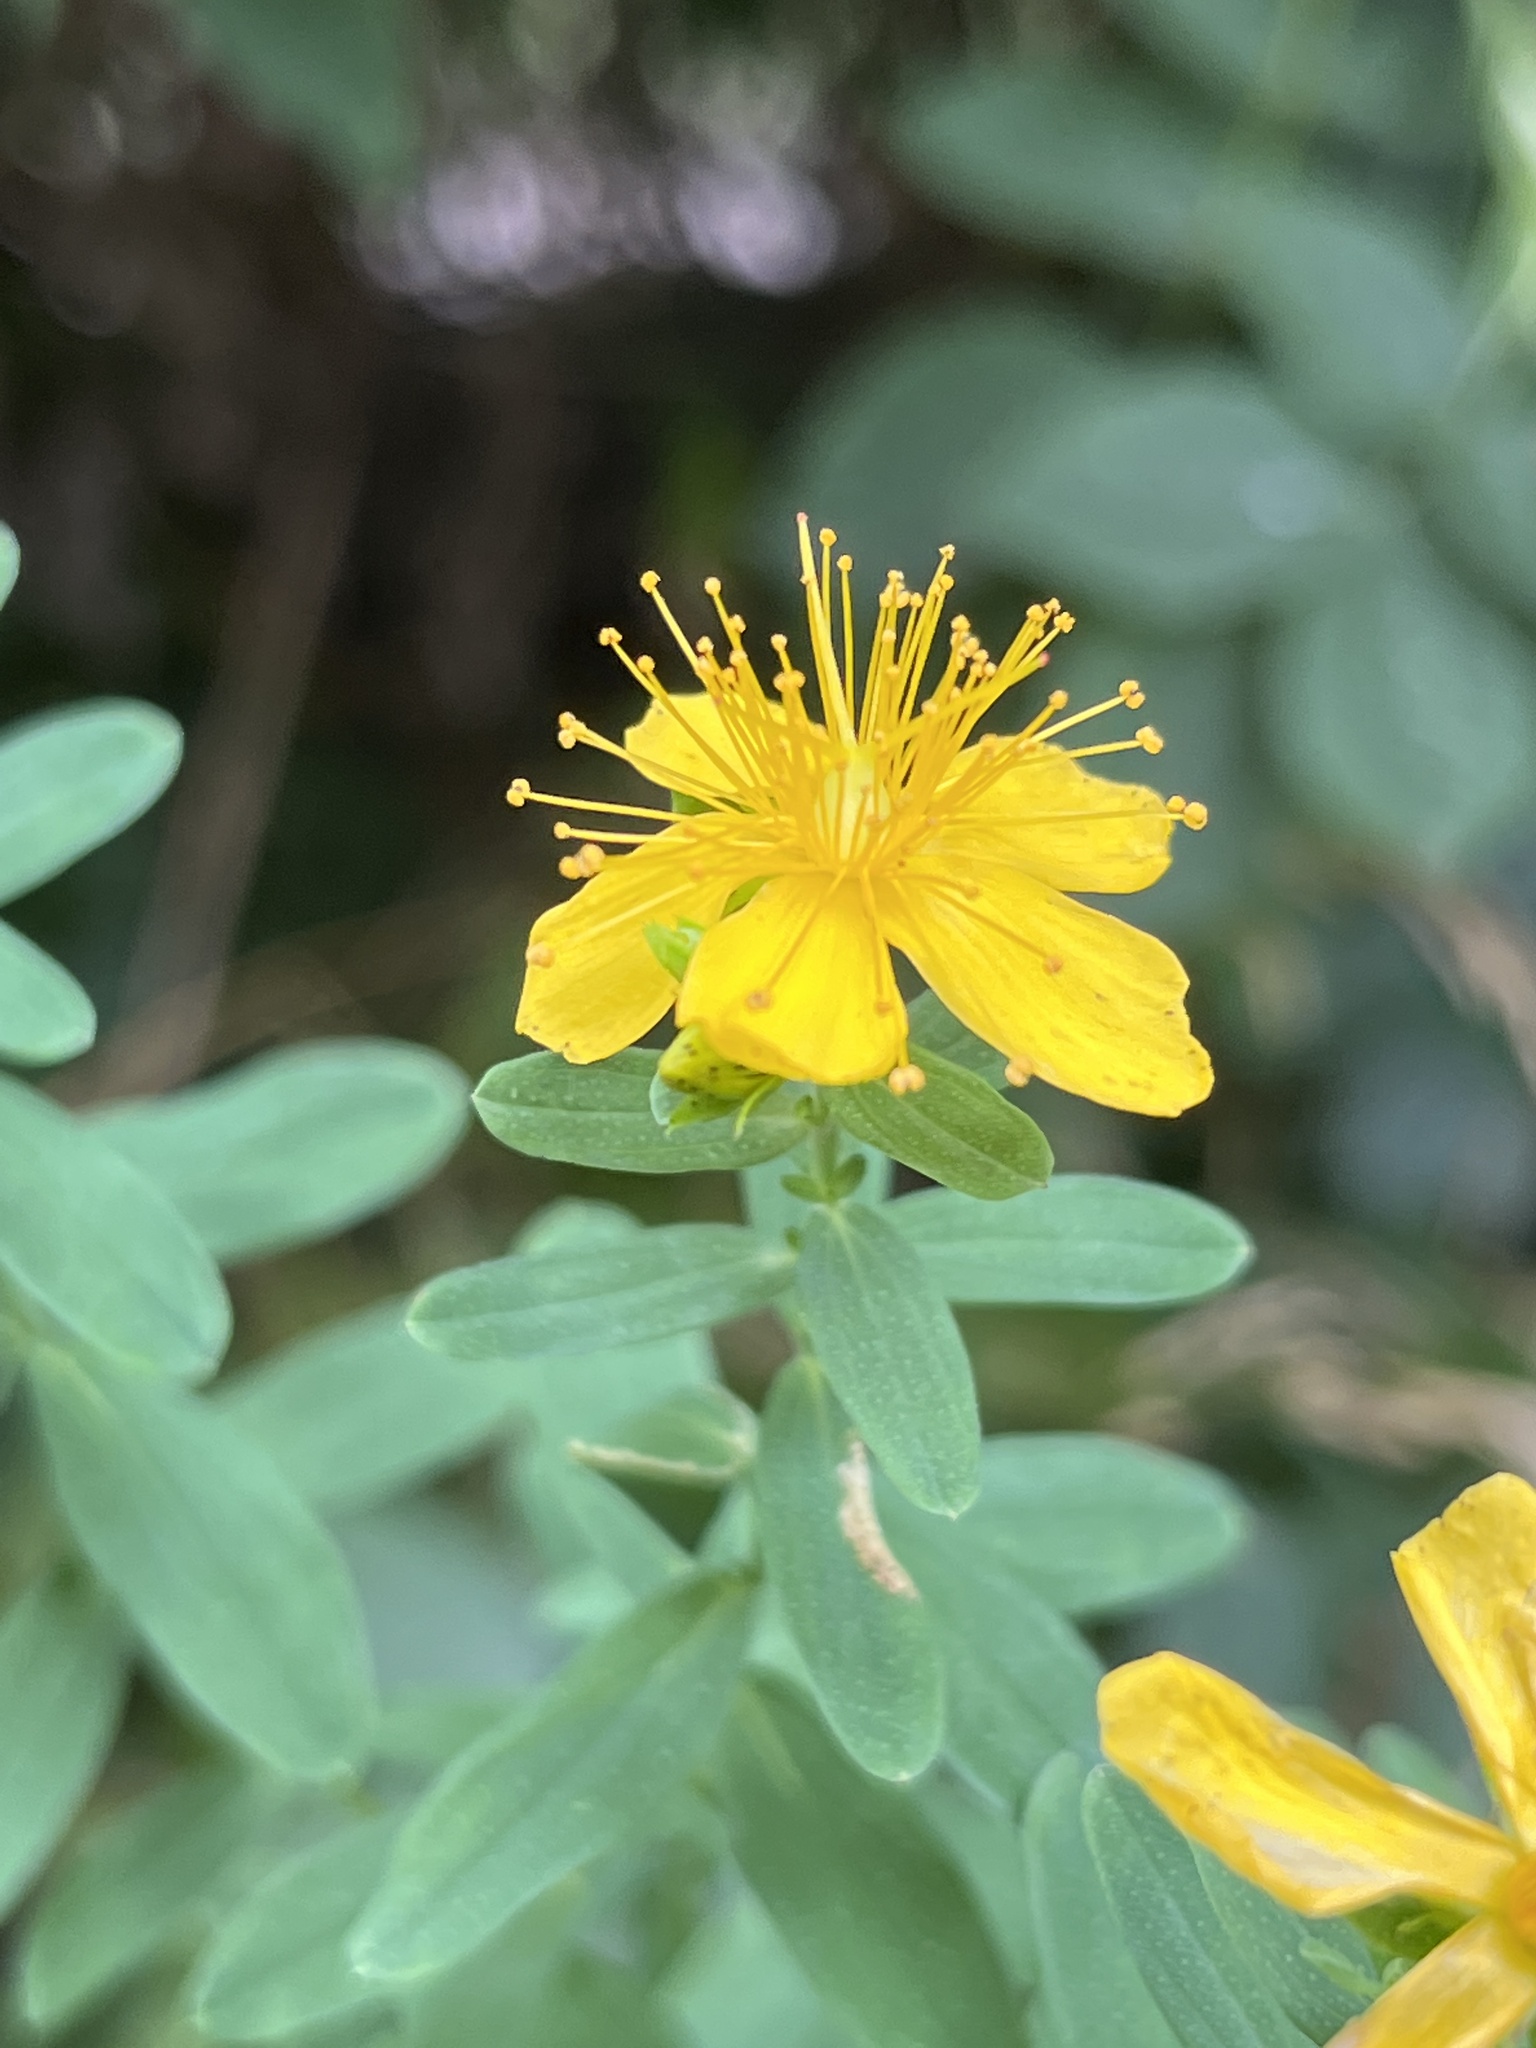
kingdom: Plantae
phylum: Tracheophyta
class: Magnoliopsida
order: Malpighiales
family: Hypericaceae
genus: Hypericum
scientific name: Hypericum perforatum
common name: Common st. johnswort
